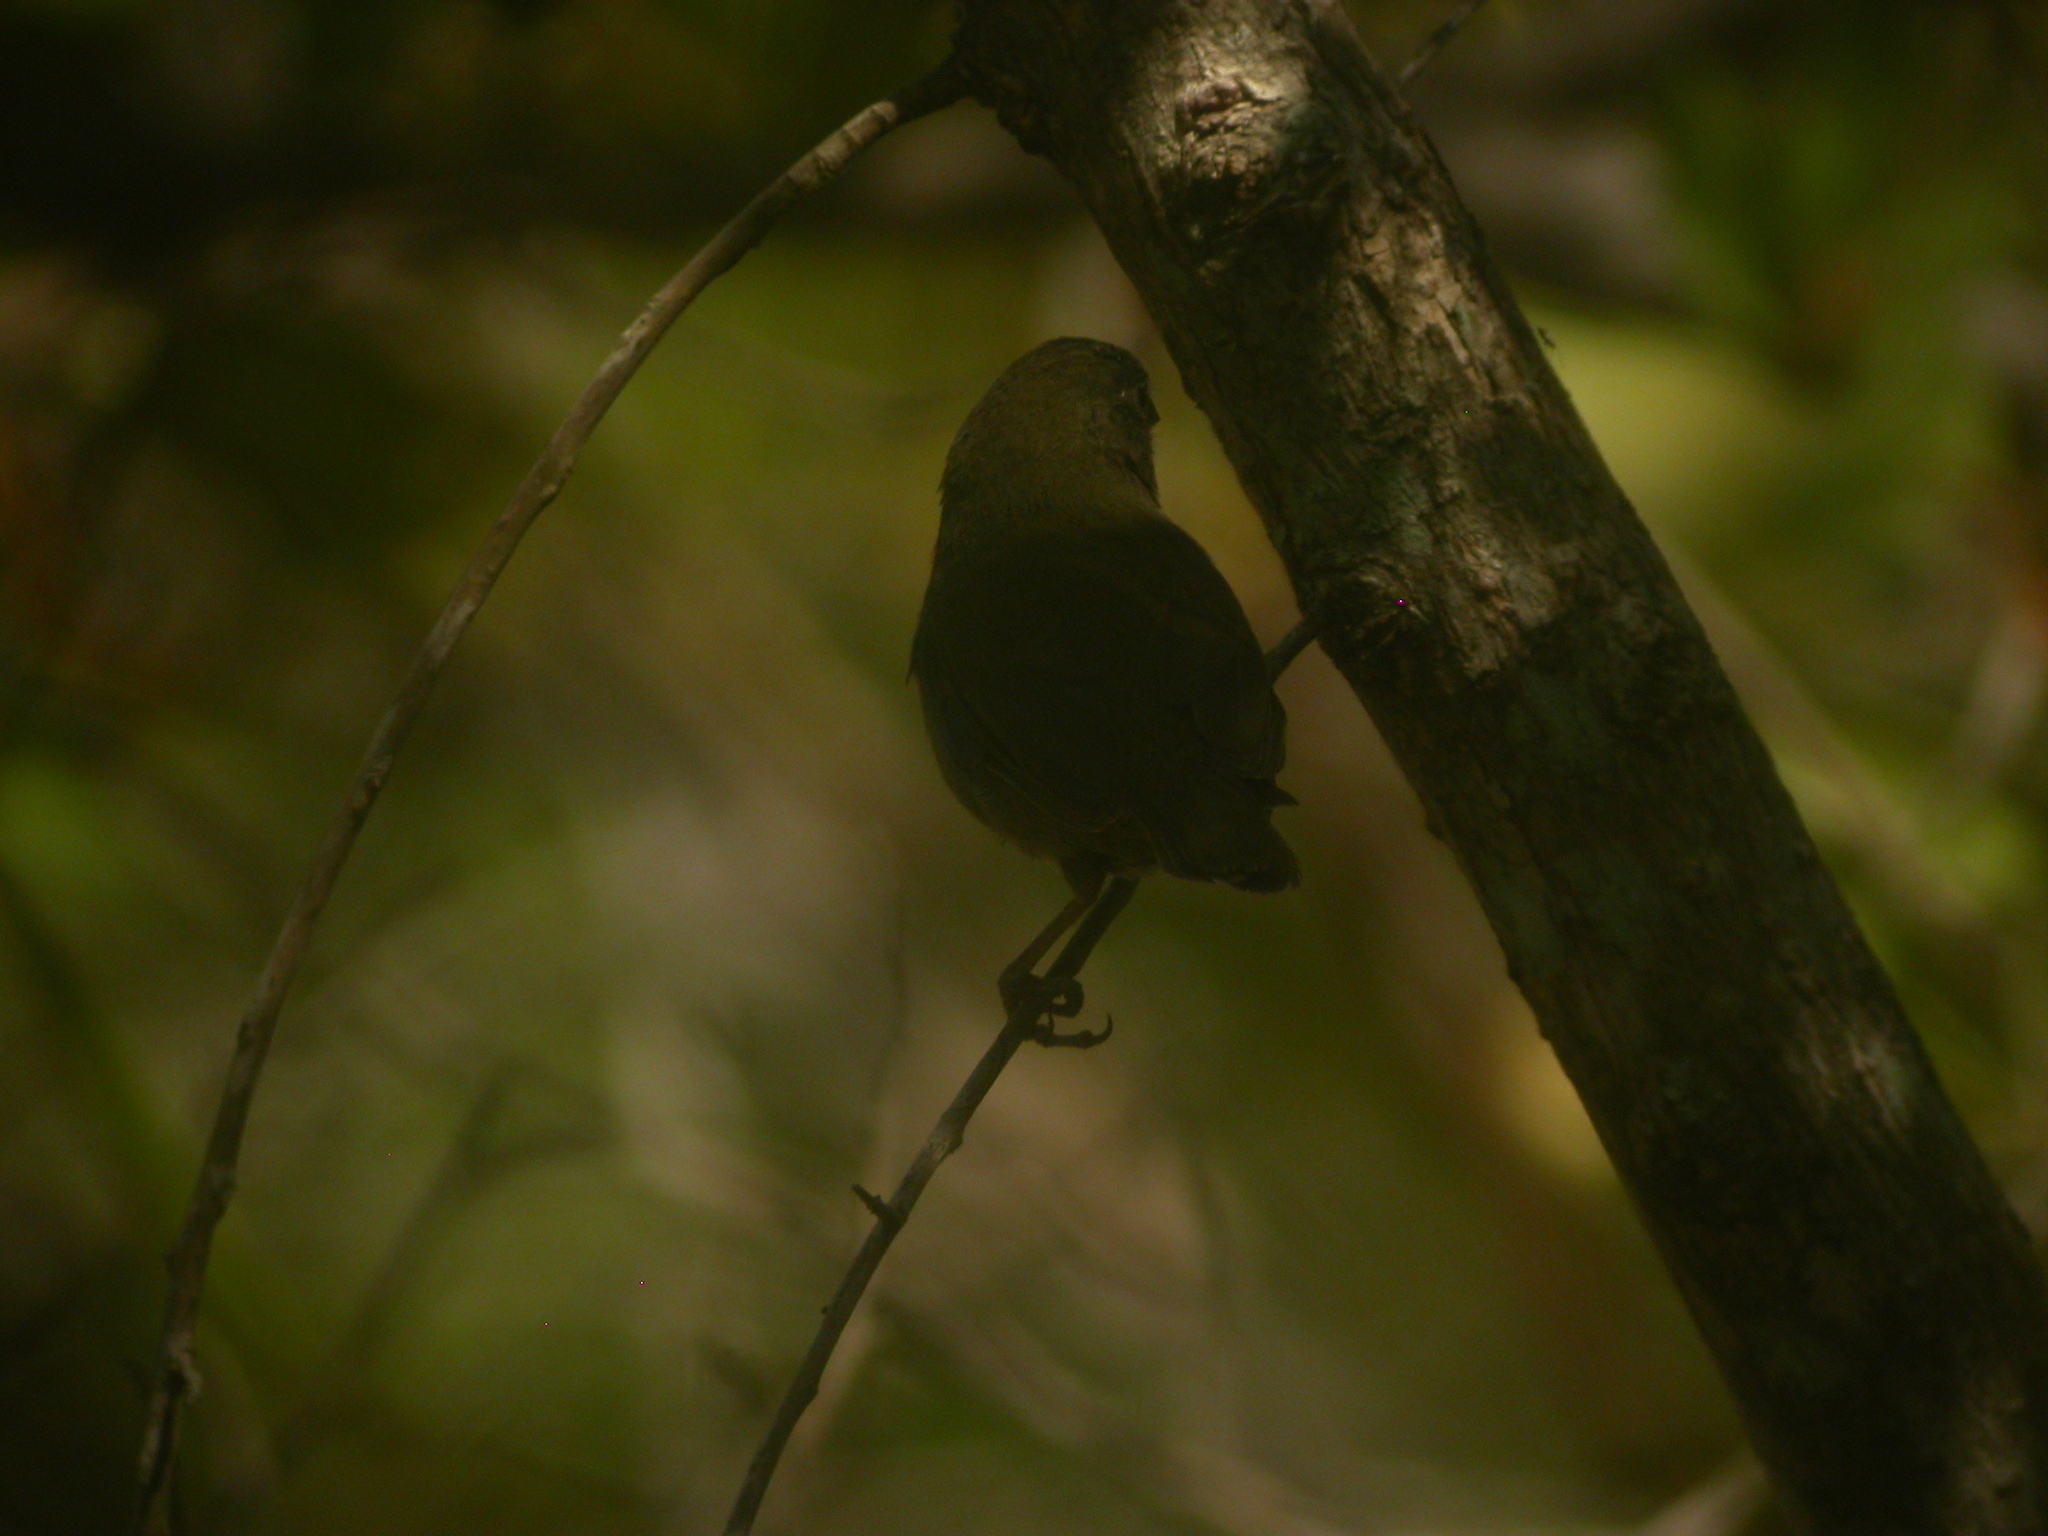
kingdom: Animalia
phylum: Chordata
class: Aves
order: Passeriformes
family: Thraupidae
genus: Melanospiza
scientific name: Melanospiza bicolor
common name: Black-faced grassquit
